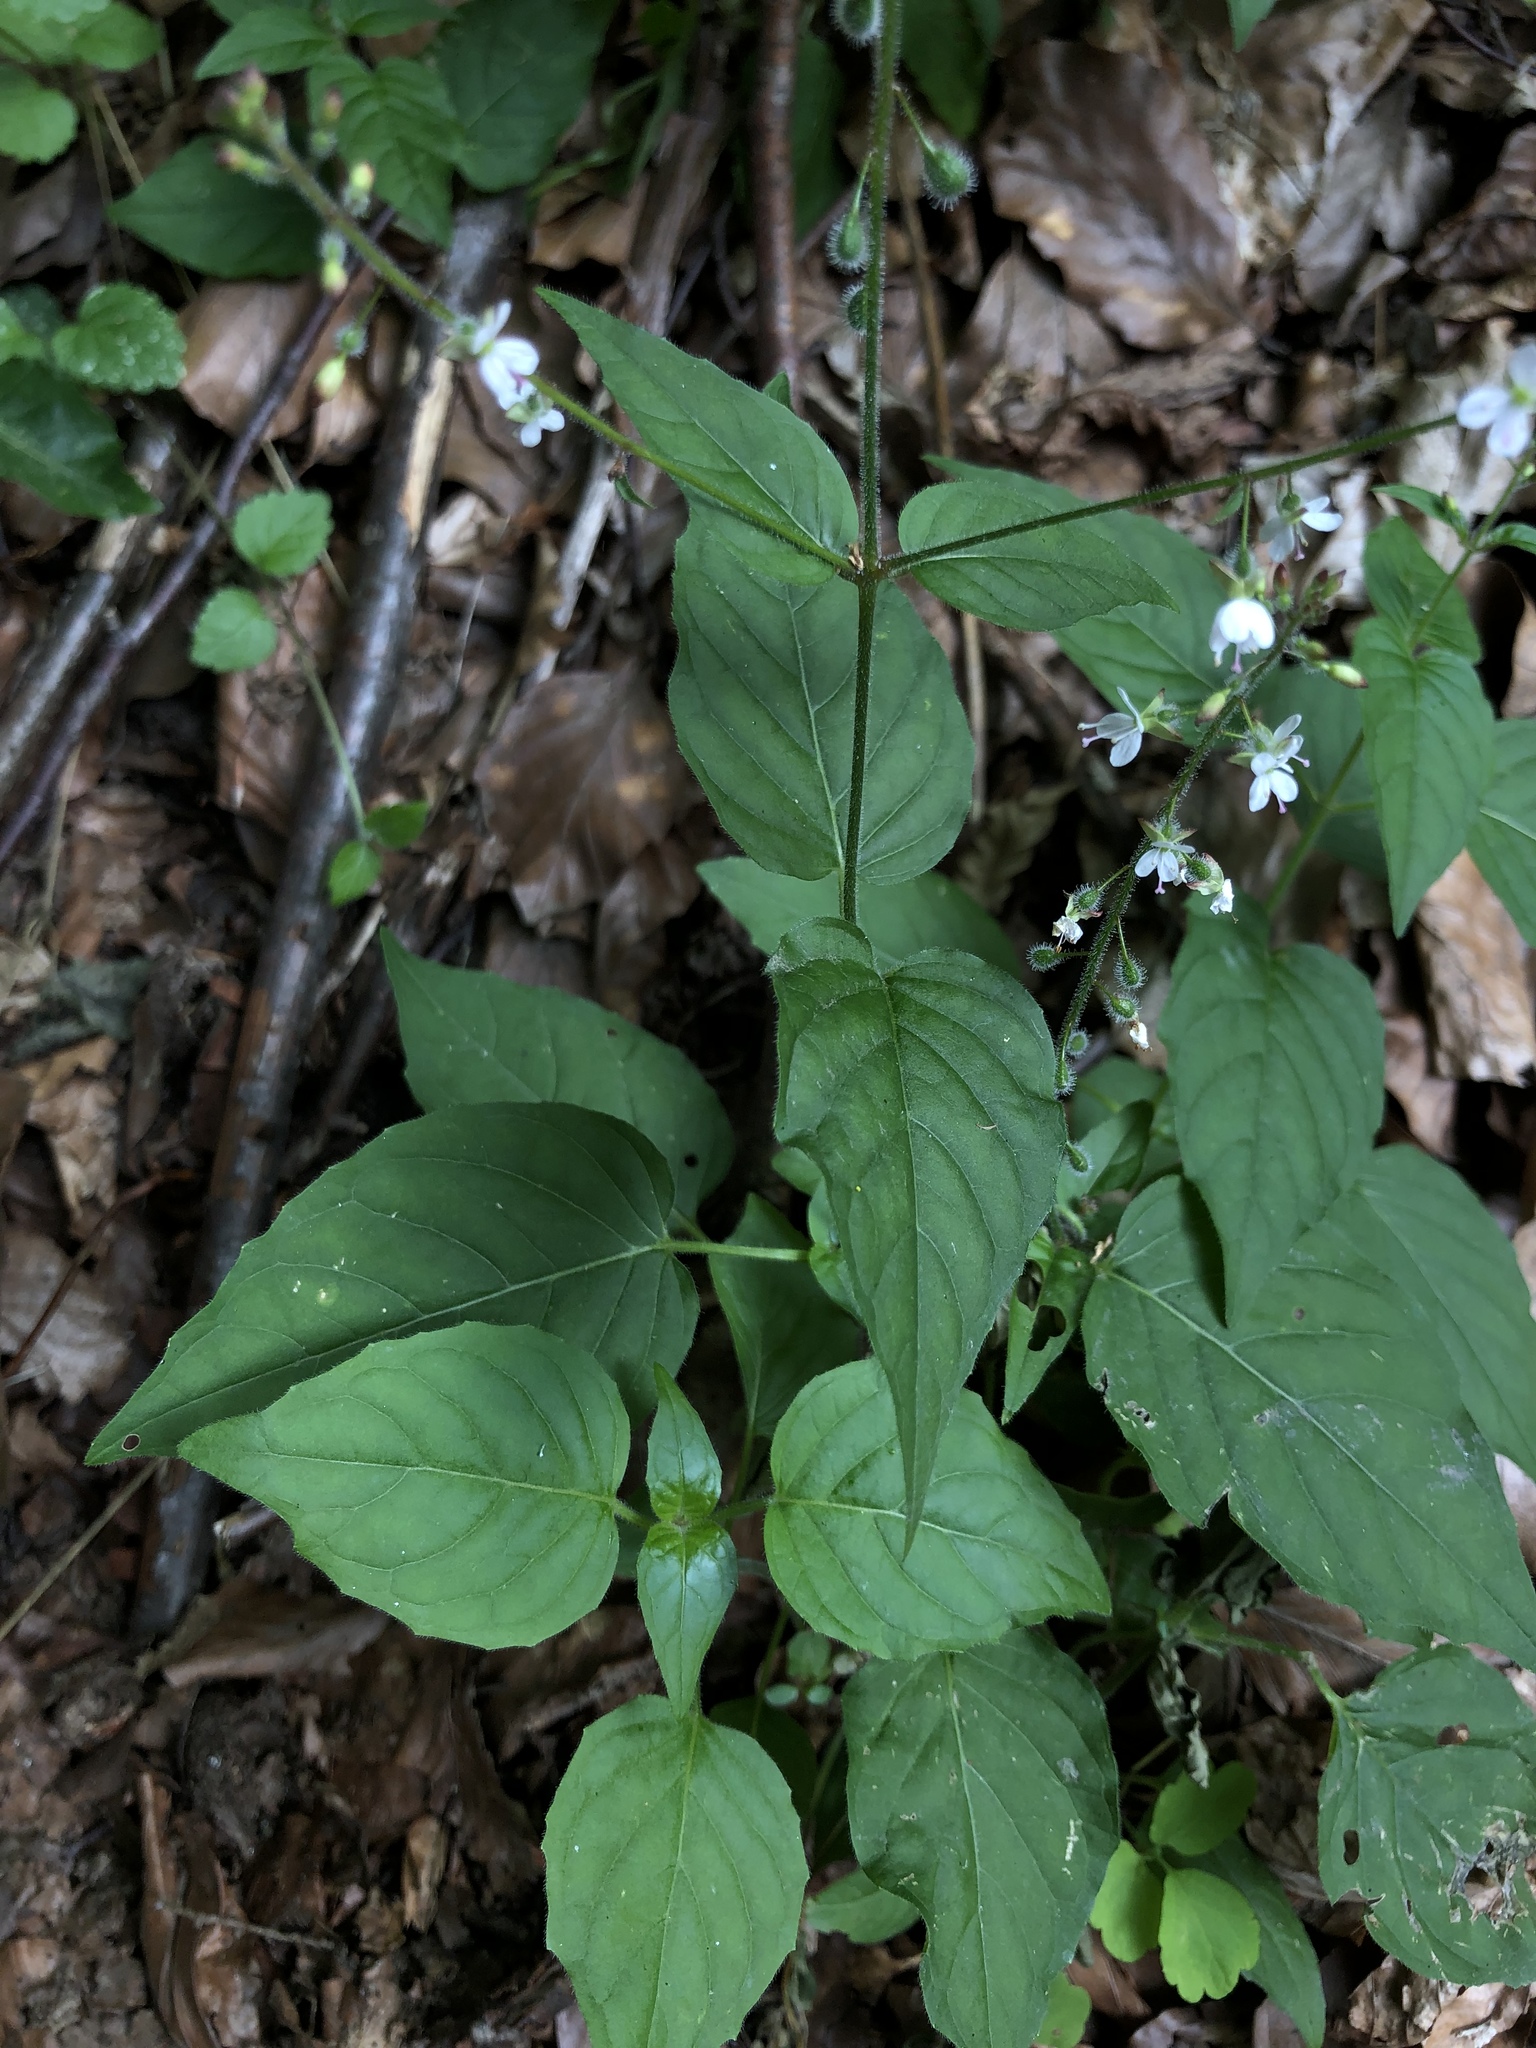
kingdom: Plantae
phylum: Tracheophyta
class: Magnoliopsida
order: Myrtales
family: Onagraceae
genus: Circaea
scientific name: Circaea lutetiana
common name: Enchanter's-nightshade
